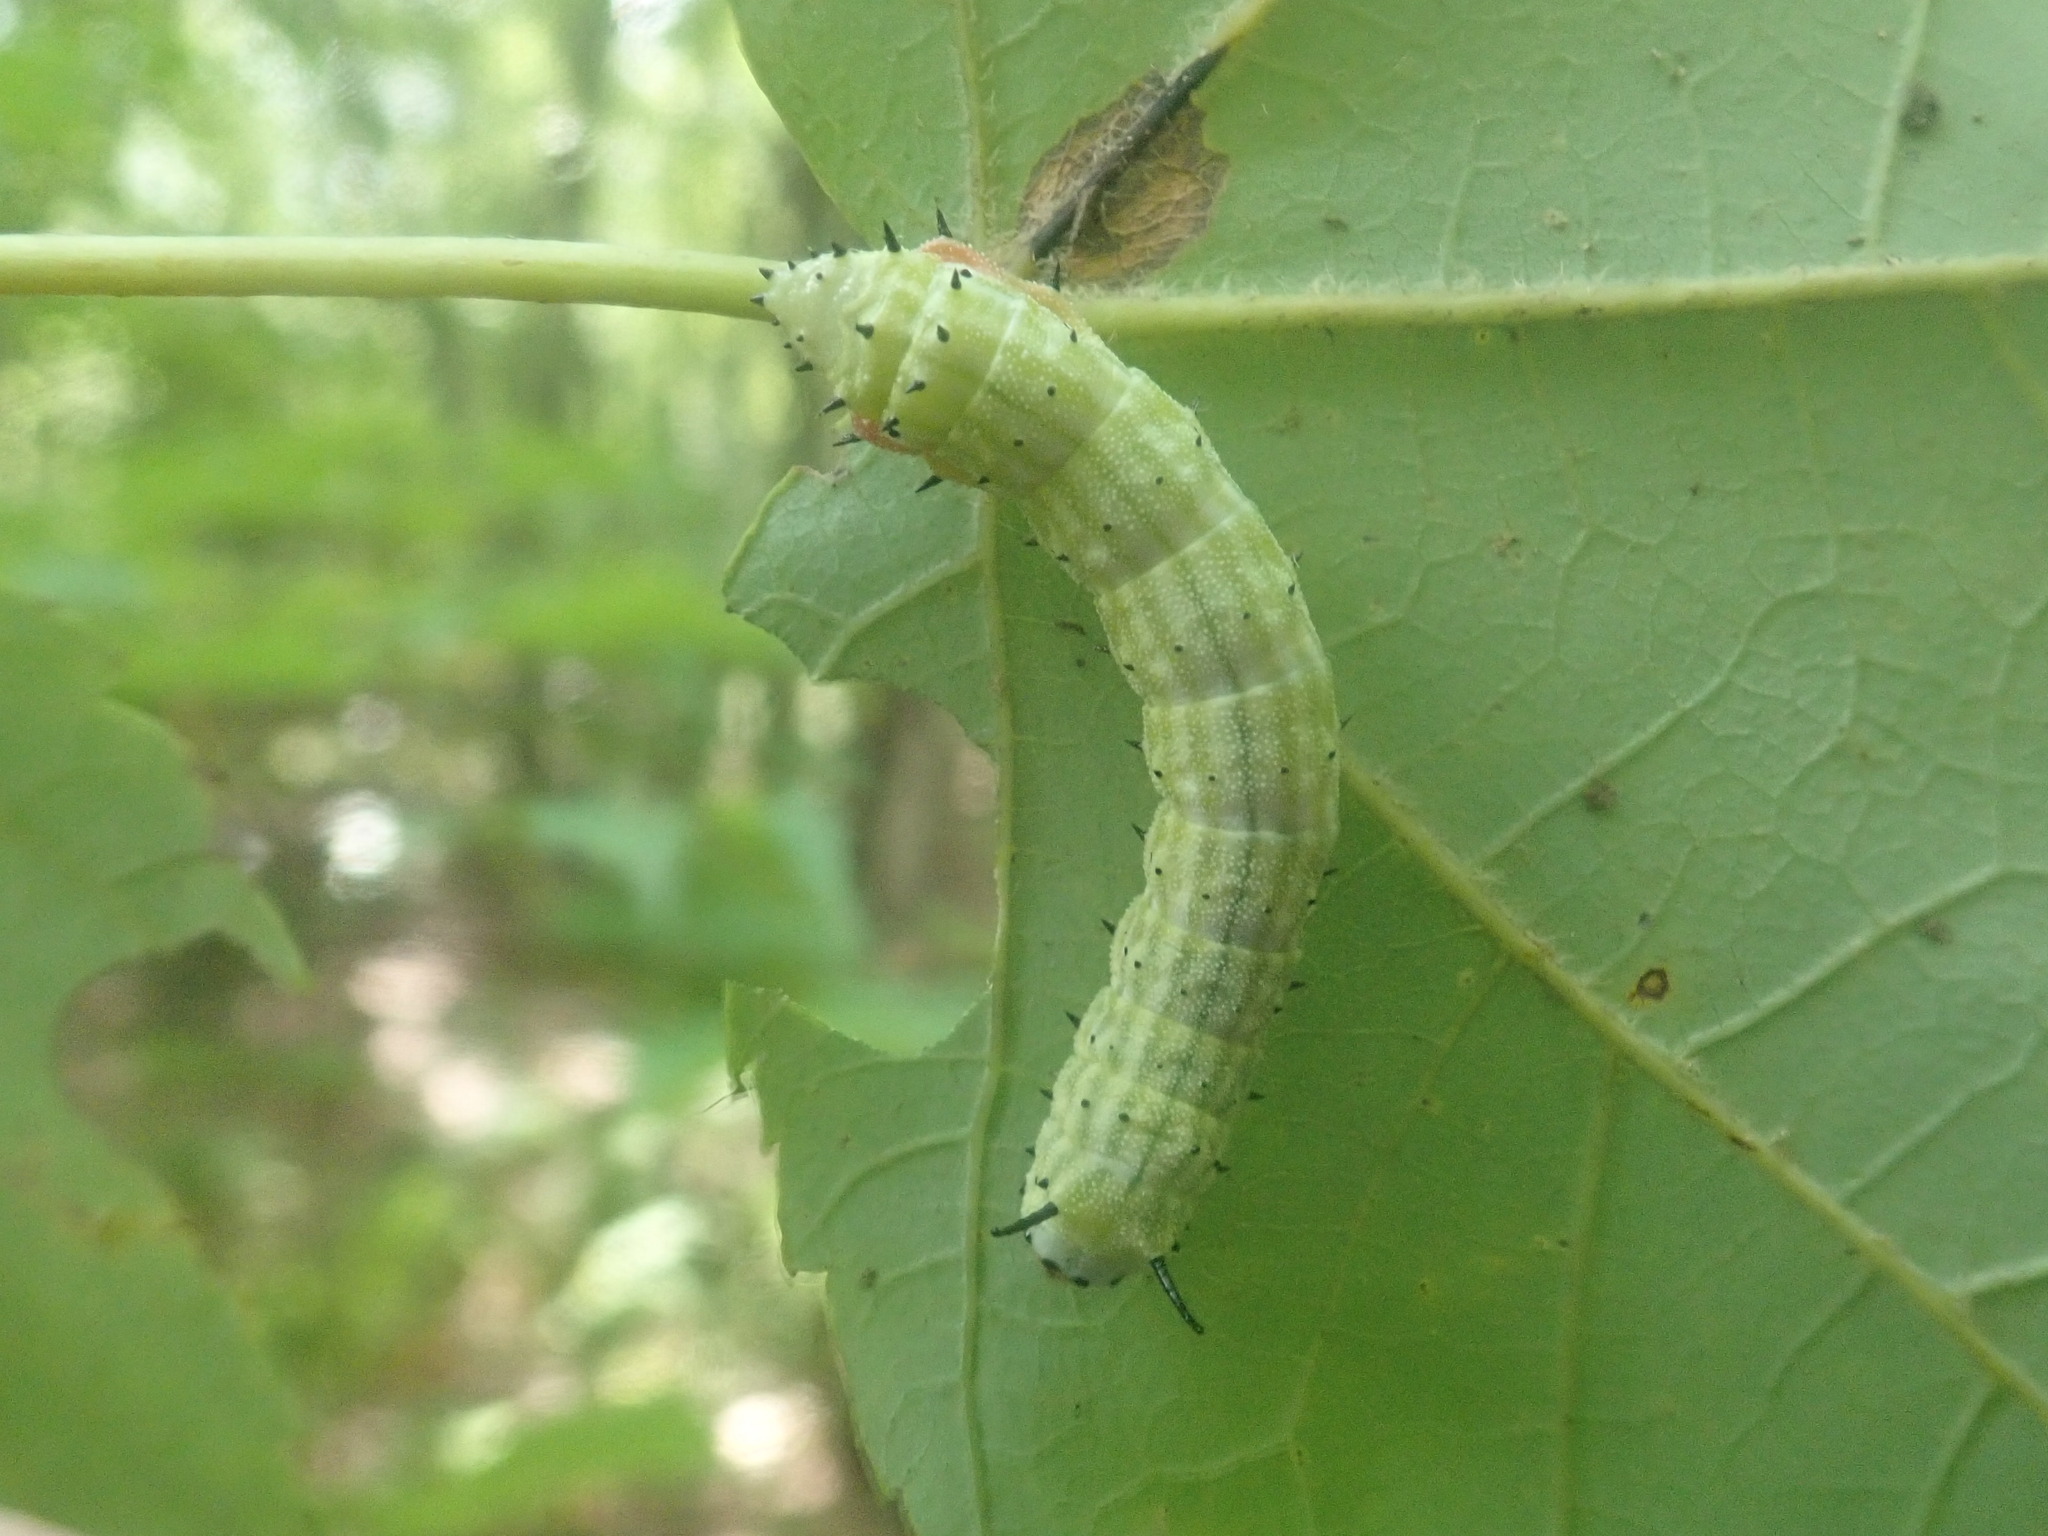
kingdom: Animalia
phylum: Arthropoda
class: Insecta
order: Lepidoptera
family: Saturniidae
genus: Dryocampa
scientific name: Dryocampa rubicunda
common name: Rosy maple moth
